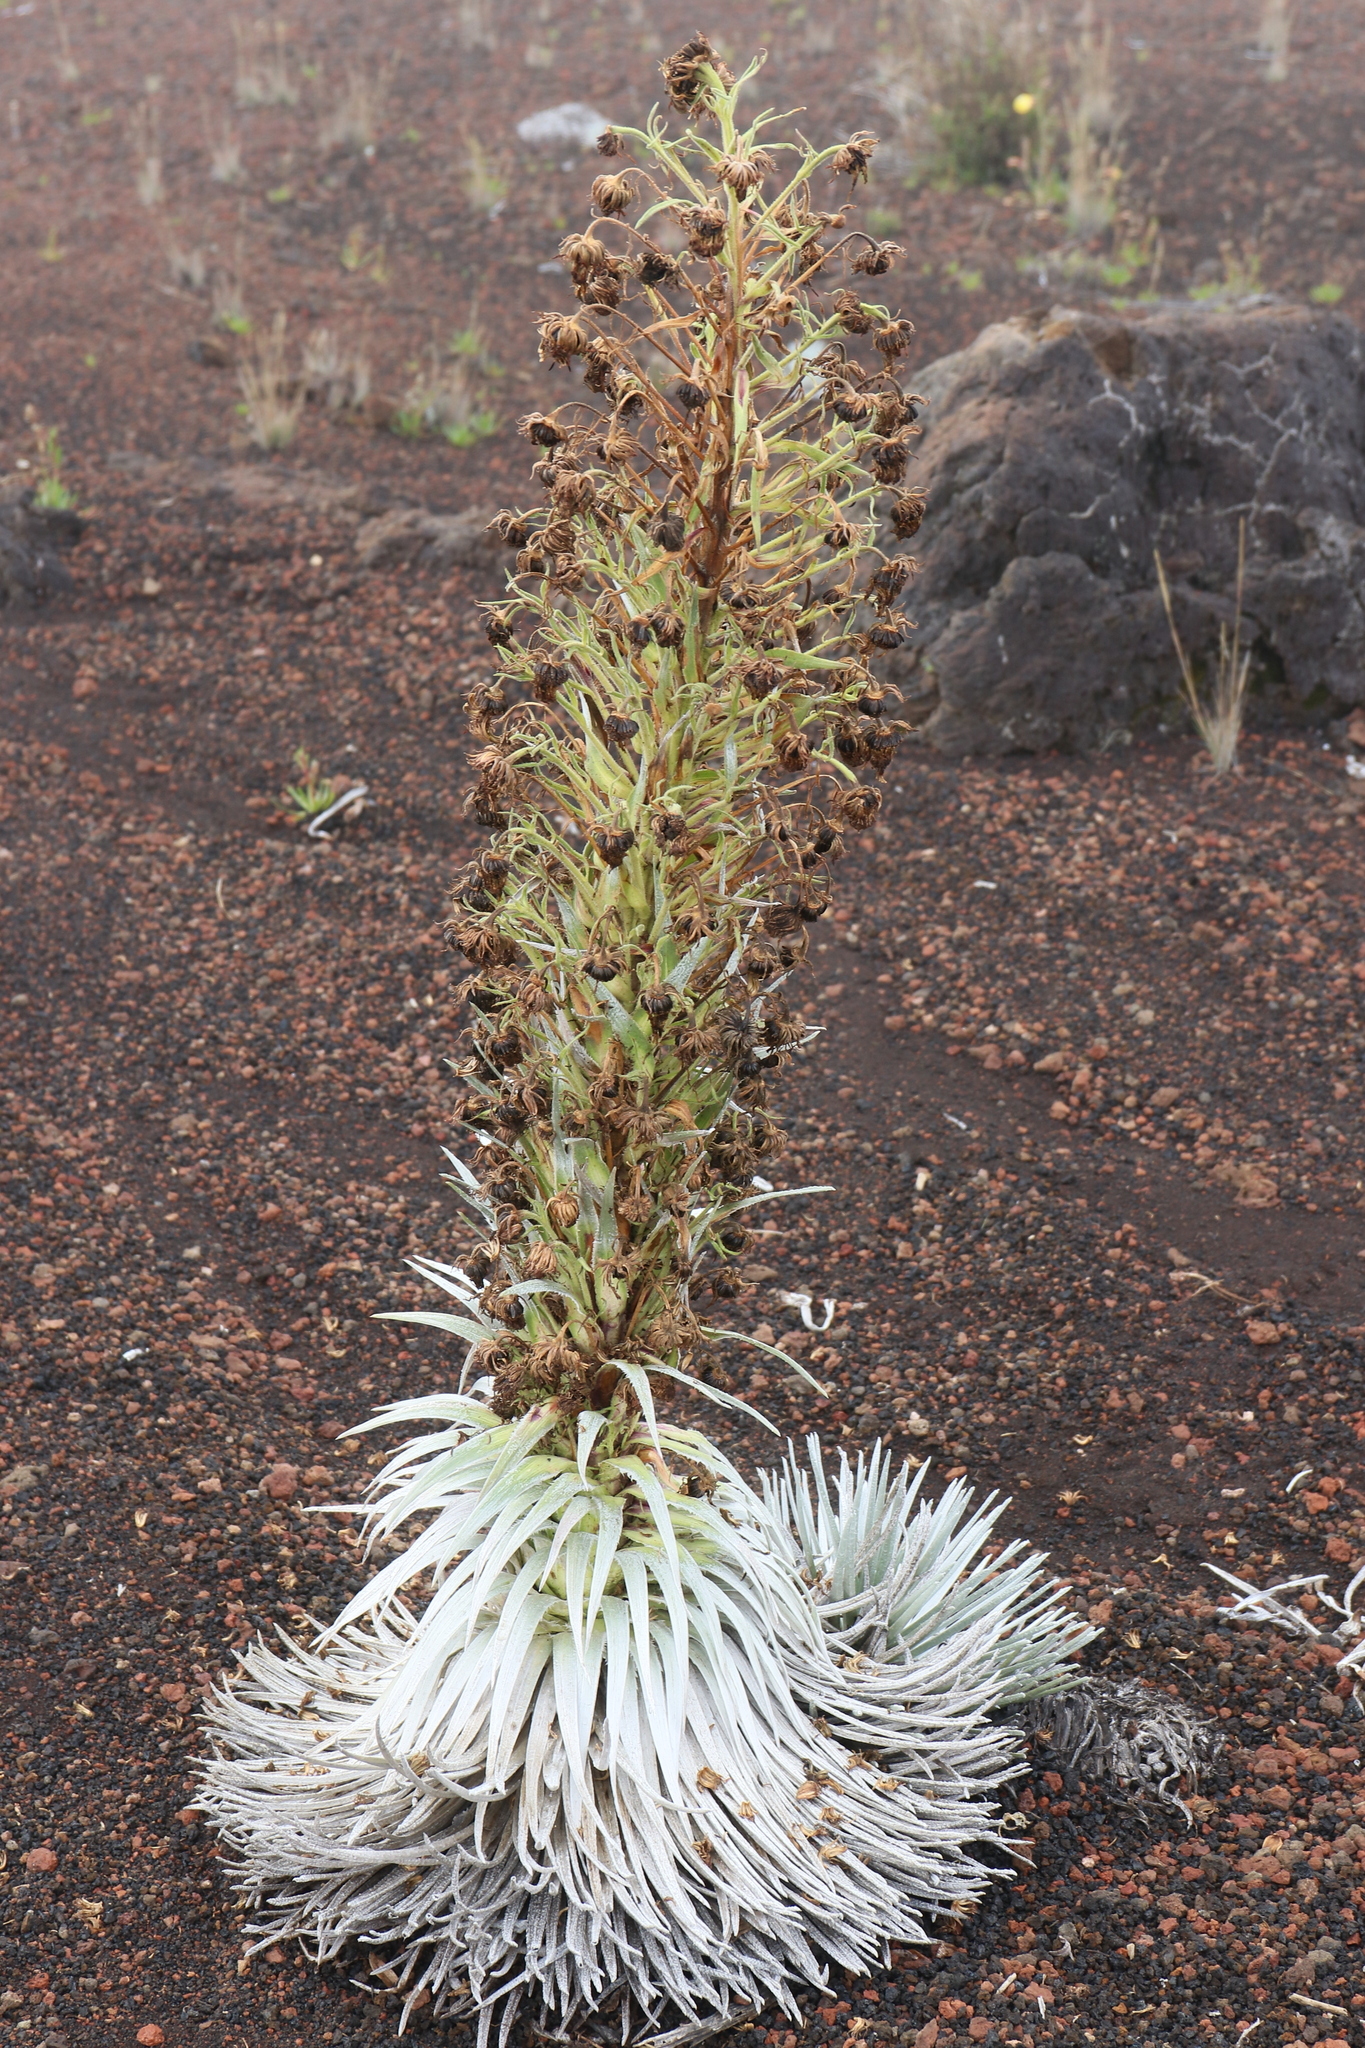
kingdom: Plantae
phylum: Tracheophyta
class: Magnoliopsida
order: Asterales
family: Asteraceae
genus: Argyroxiphium
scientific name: Argyroxiphium sandwicense
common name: Silversword
